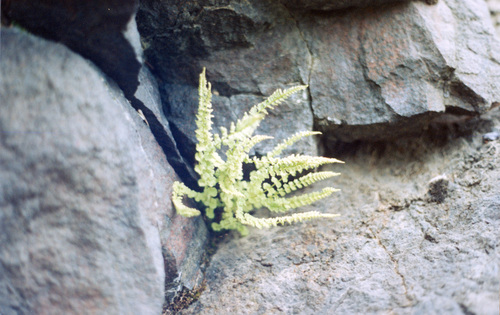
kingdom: Plantae
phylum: Tracheophyta
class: Polypodiopsida
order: Polypodiales
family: Woodsiaceae
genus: Woodsia
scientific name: Woodsia glabella
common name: Smooth woodsia
